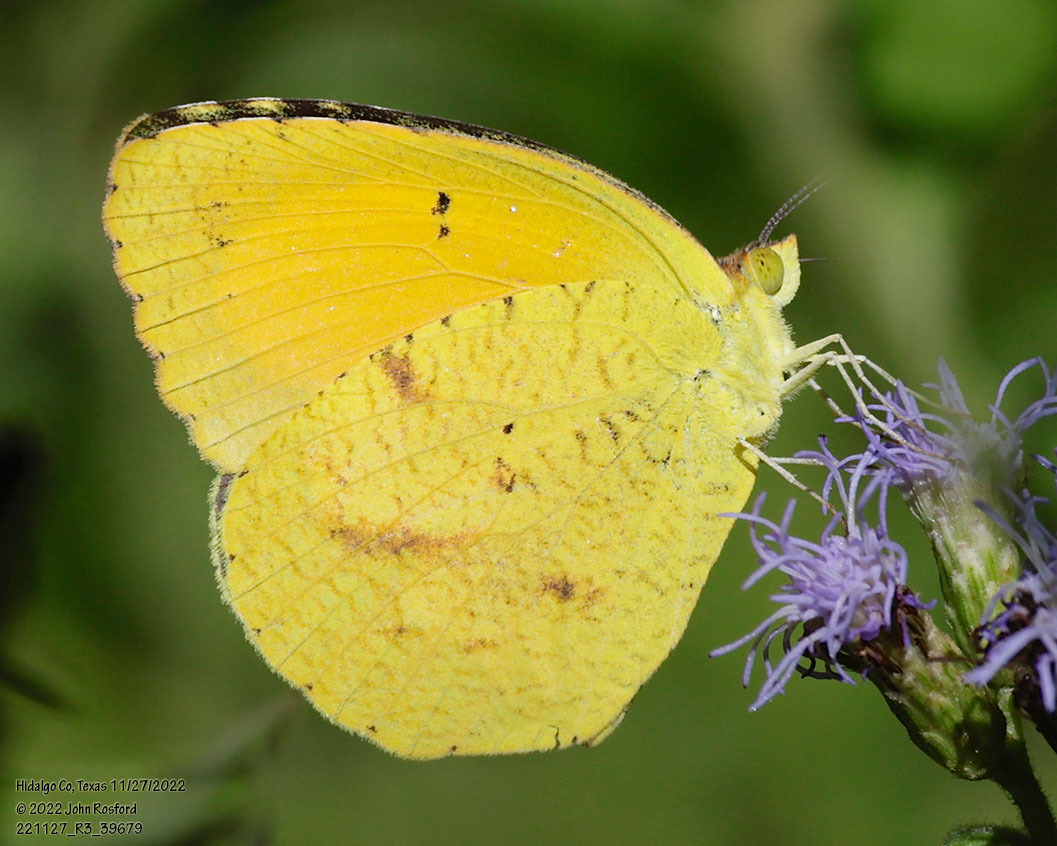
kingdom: Animalia
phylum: Arthropoda
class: Insecta
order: Lepidoptera
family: Pieridae
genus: Abaeis
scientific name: Abaeis nicippe
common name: Sleepy orange
